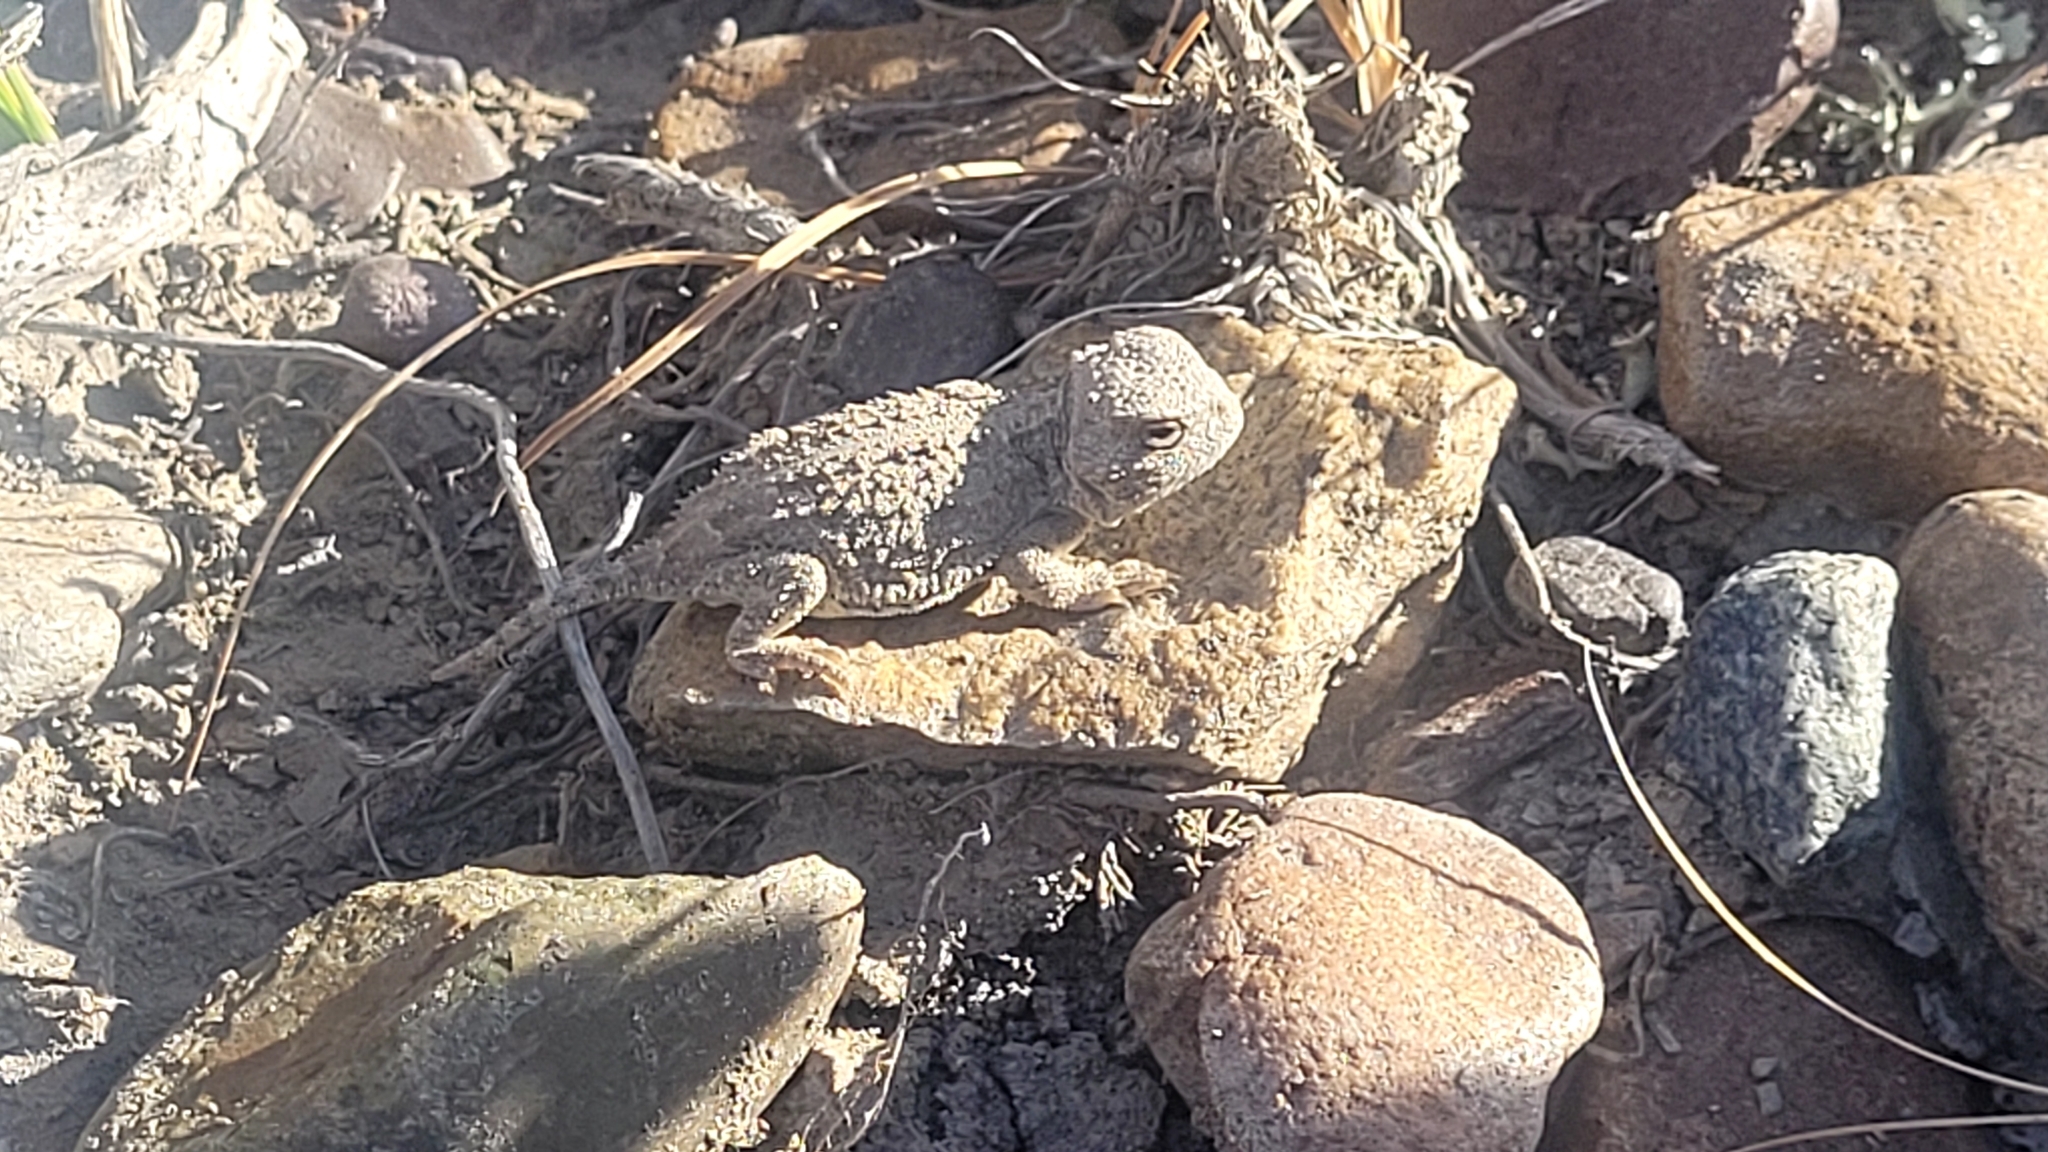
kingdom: Animalia
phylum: Chordata
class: Squamata
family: Phrynosomatidae
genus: Phrynosoma
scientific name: Phrynosoma hernandesi
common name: Greater short-horned lizard
